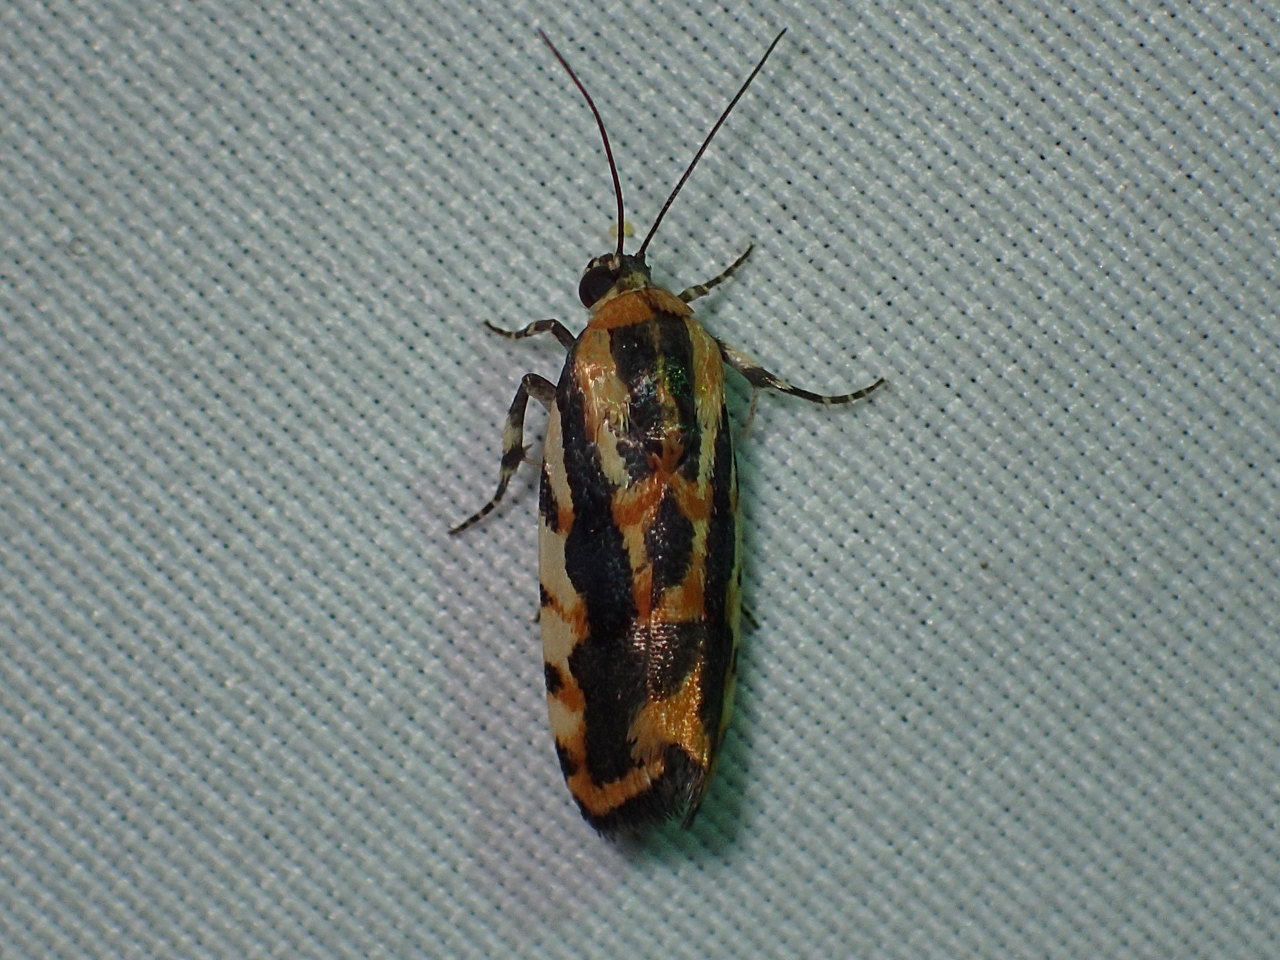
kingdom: Animalia
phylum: Arthropoda
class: Insecta
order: Lepidoptera
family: Noctuidae
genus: Acontia
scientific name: Acontia leo
